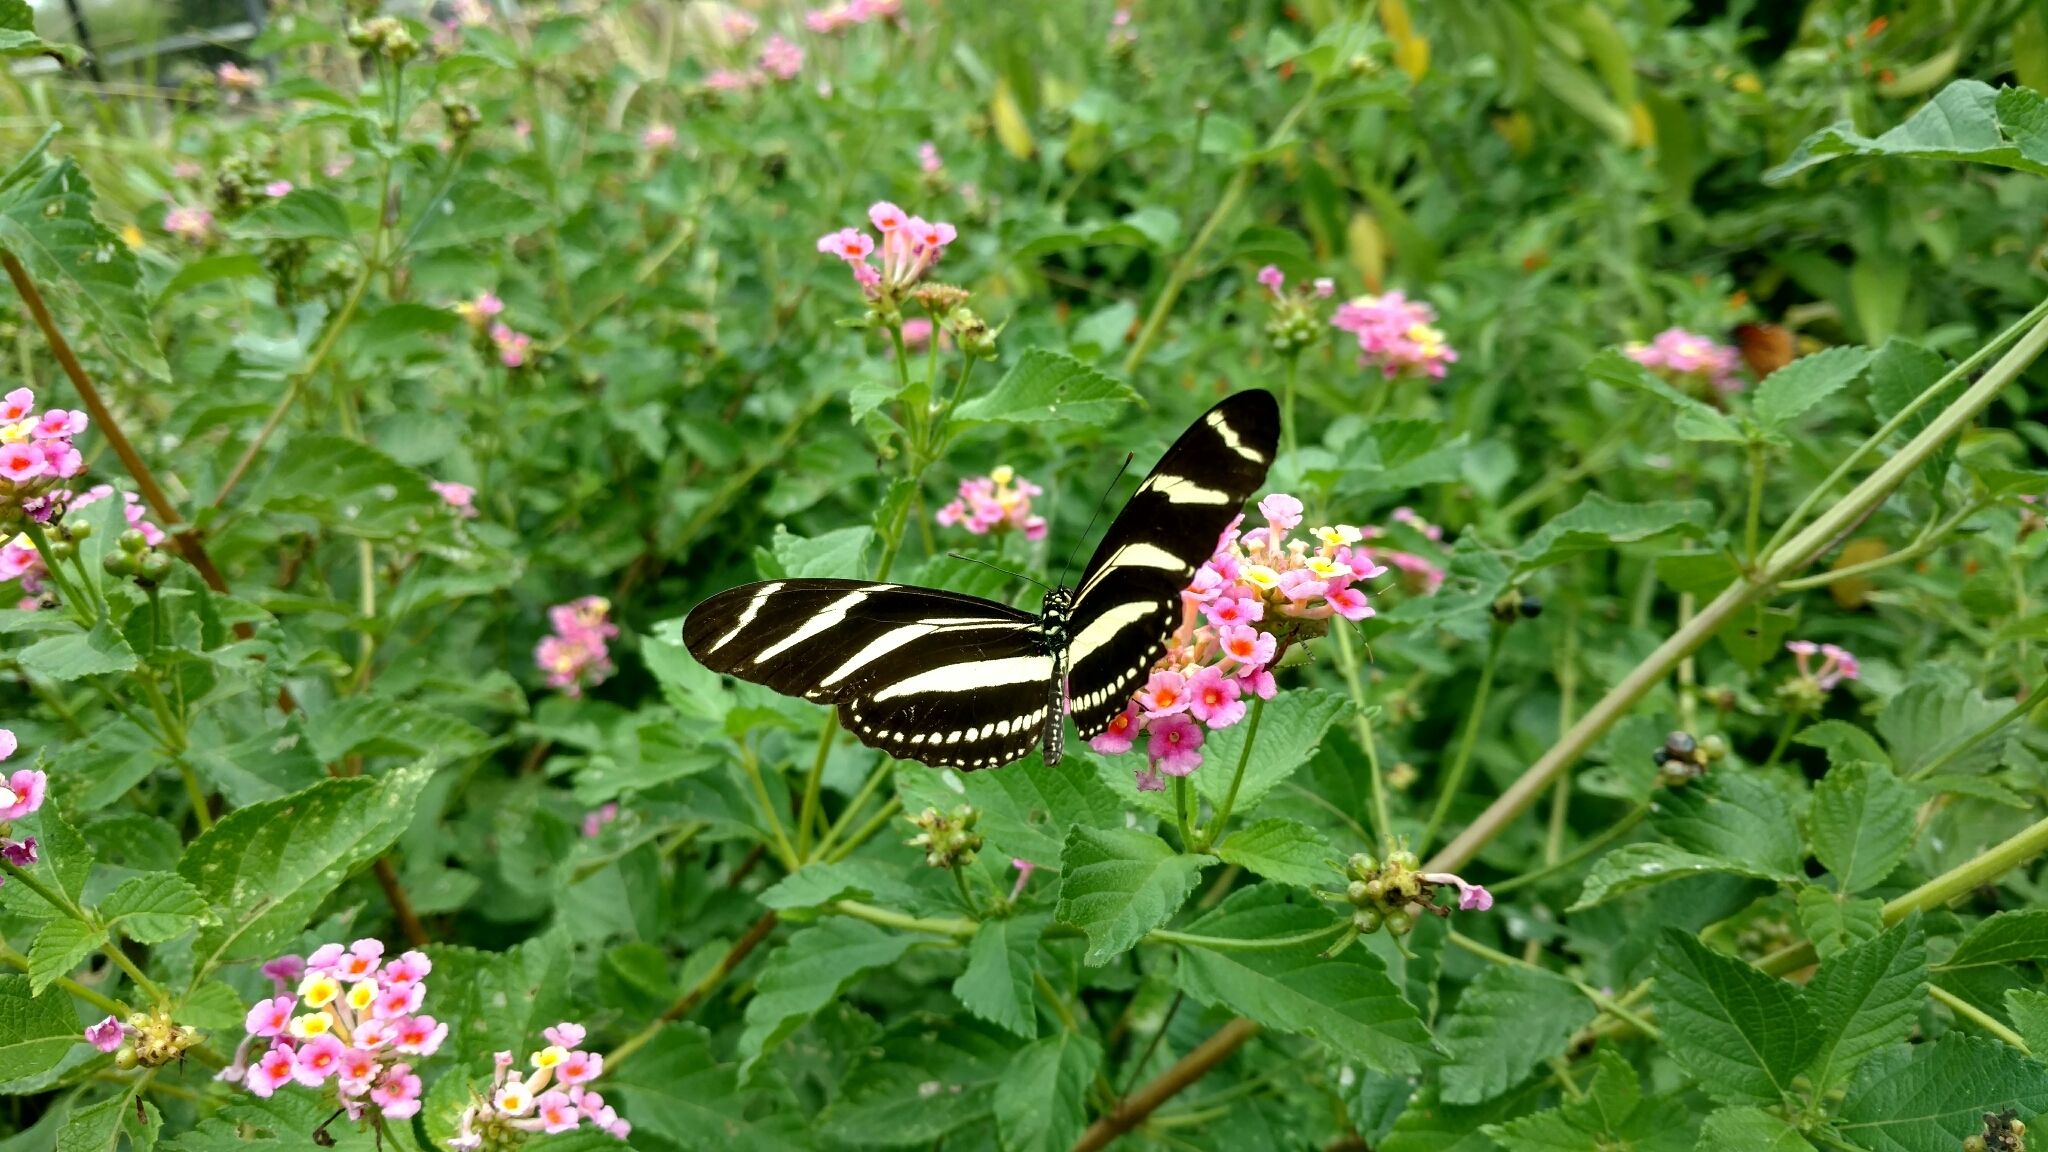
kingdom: Animalia
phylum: Arthropoda
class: Insecta
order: Lepidoptera
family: Nymphalidae
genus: Heliconius
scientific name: Heliconius charithonia
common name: Zebra long wing
